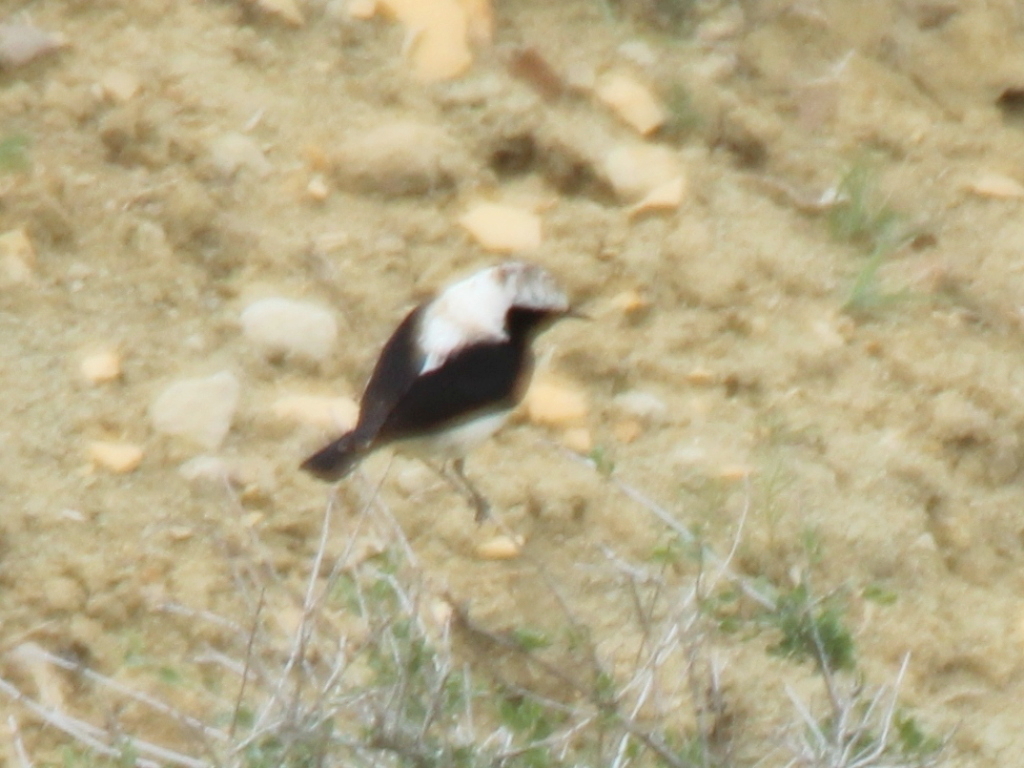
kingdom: Animalia
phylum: Chordata
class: Aves
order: Passeriformes
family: Muscicapidae
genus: Oenanthe
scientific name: Oenanthe hispanica
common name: Black-eared wheatear
